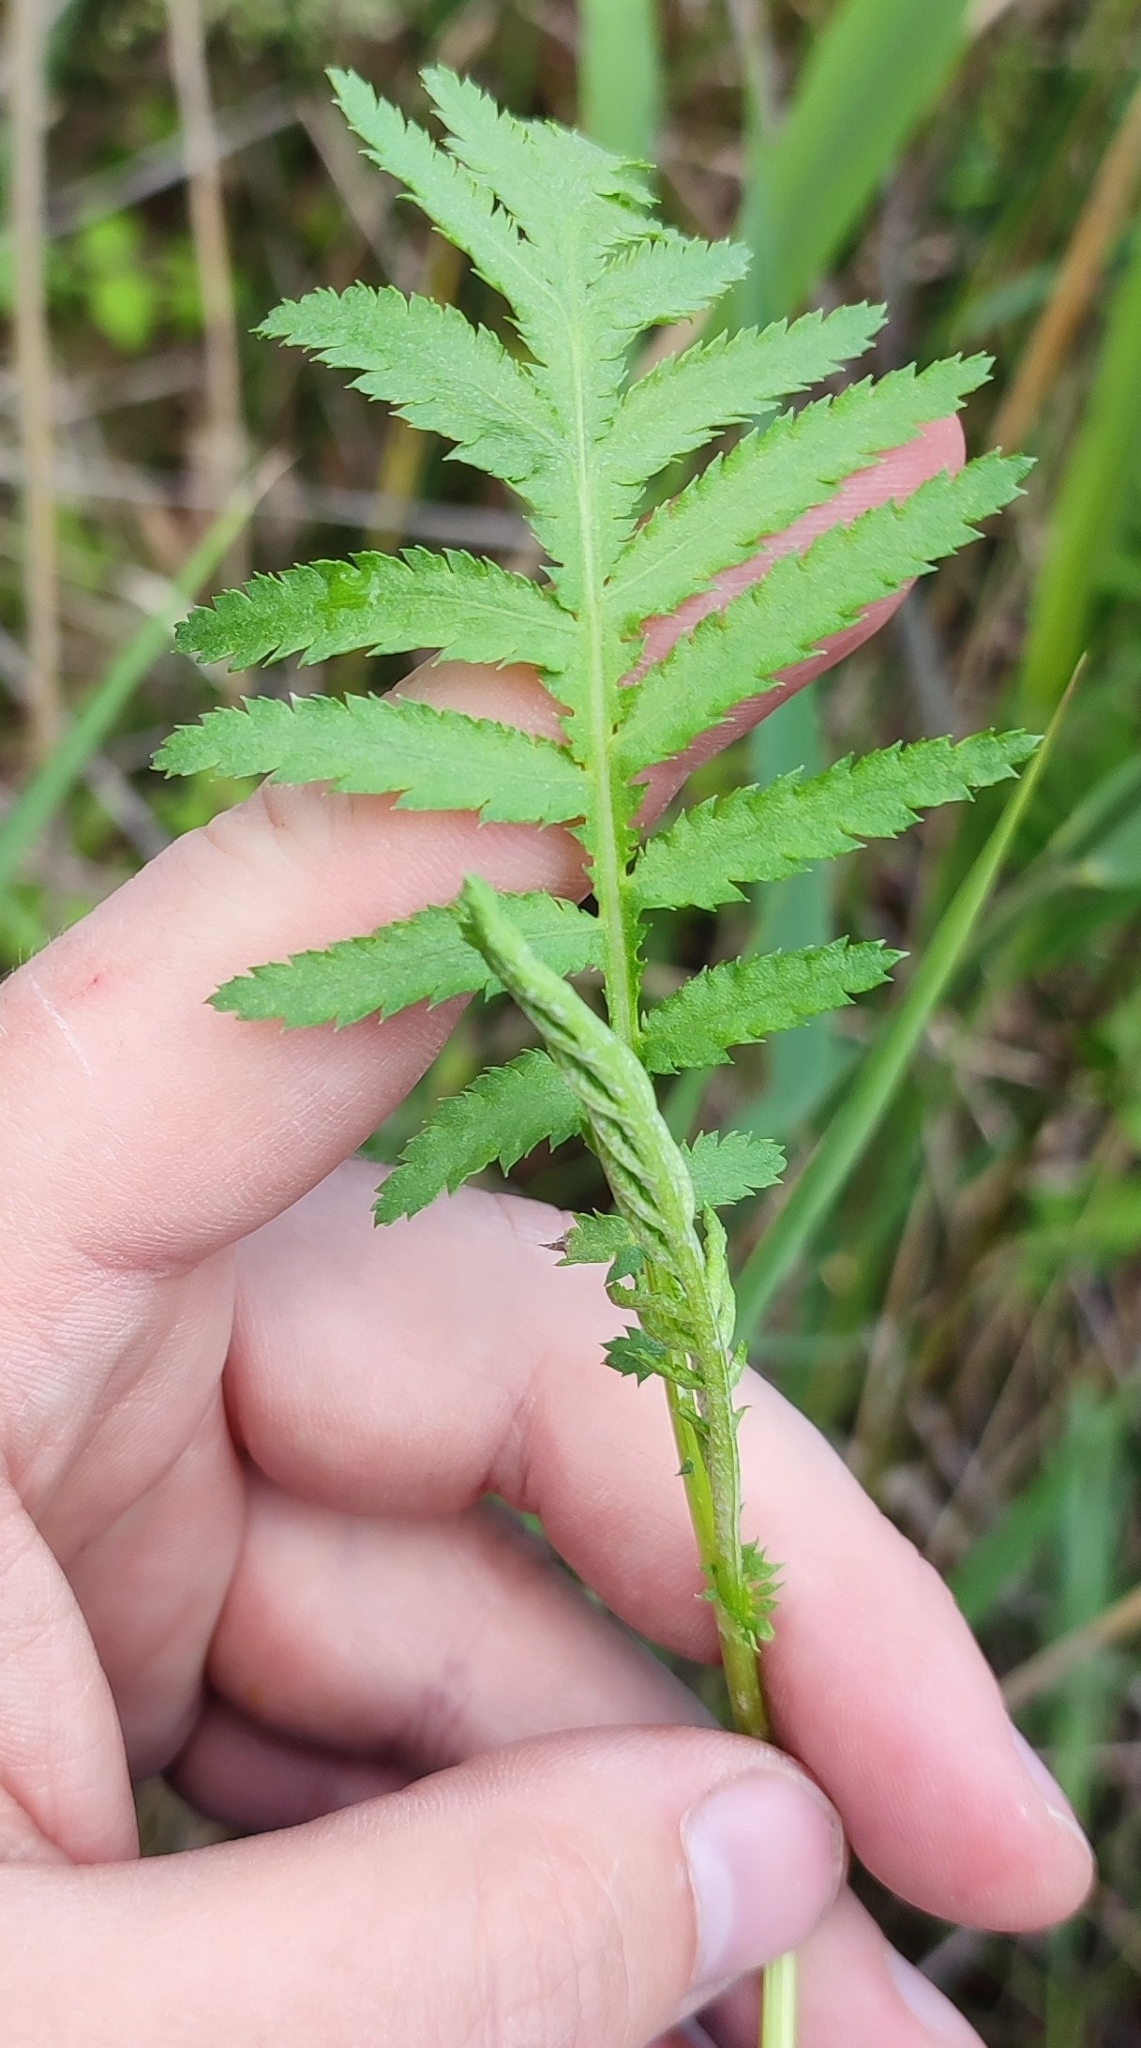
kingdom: Plantae
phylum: Tracheophyta
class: Magnoliopsida
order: Asterales
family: Asteraceae
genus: Tanacetum
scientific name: Tanacetum vulgare
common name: Common tansy
